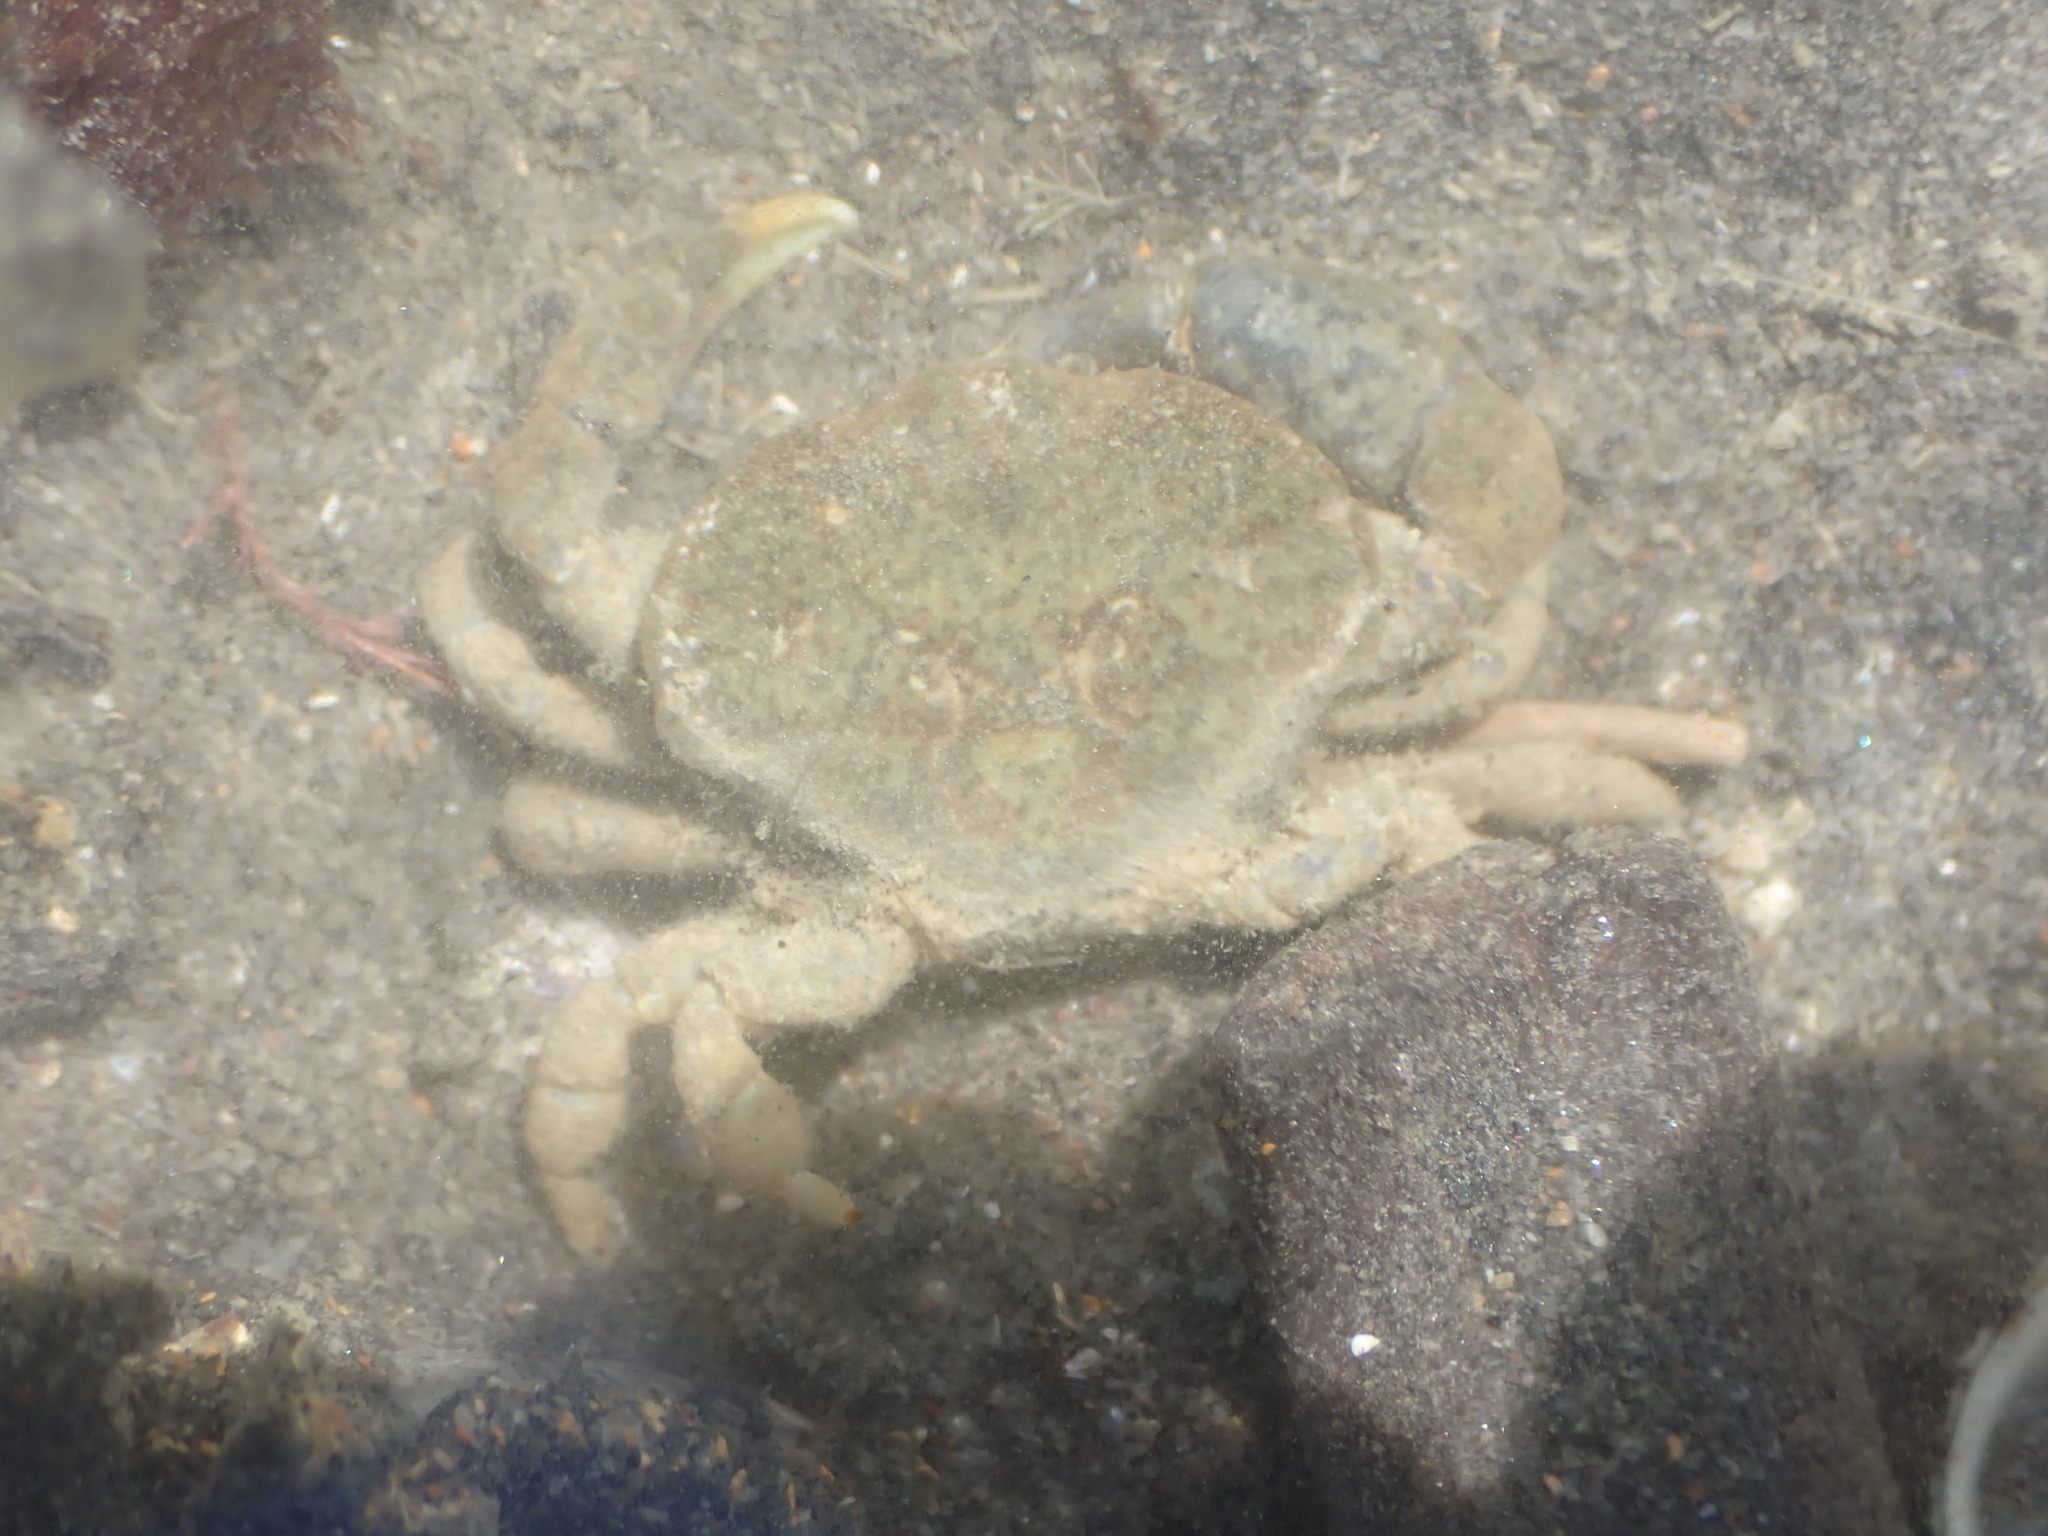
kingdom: Animalia
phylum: Arthropoda
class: Malacostraca
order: Decapoda
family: Heteroziidae
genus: Heterozius
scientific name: Heterozius rotundifrons
